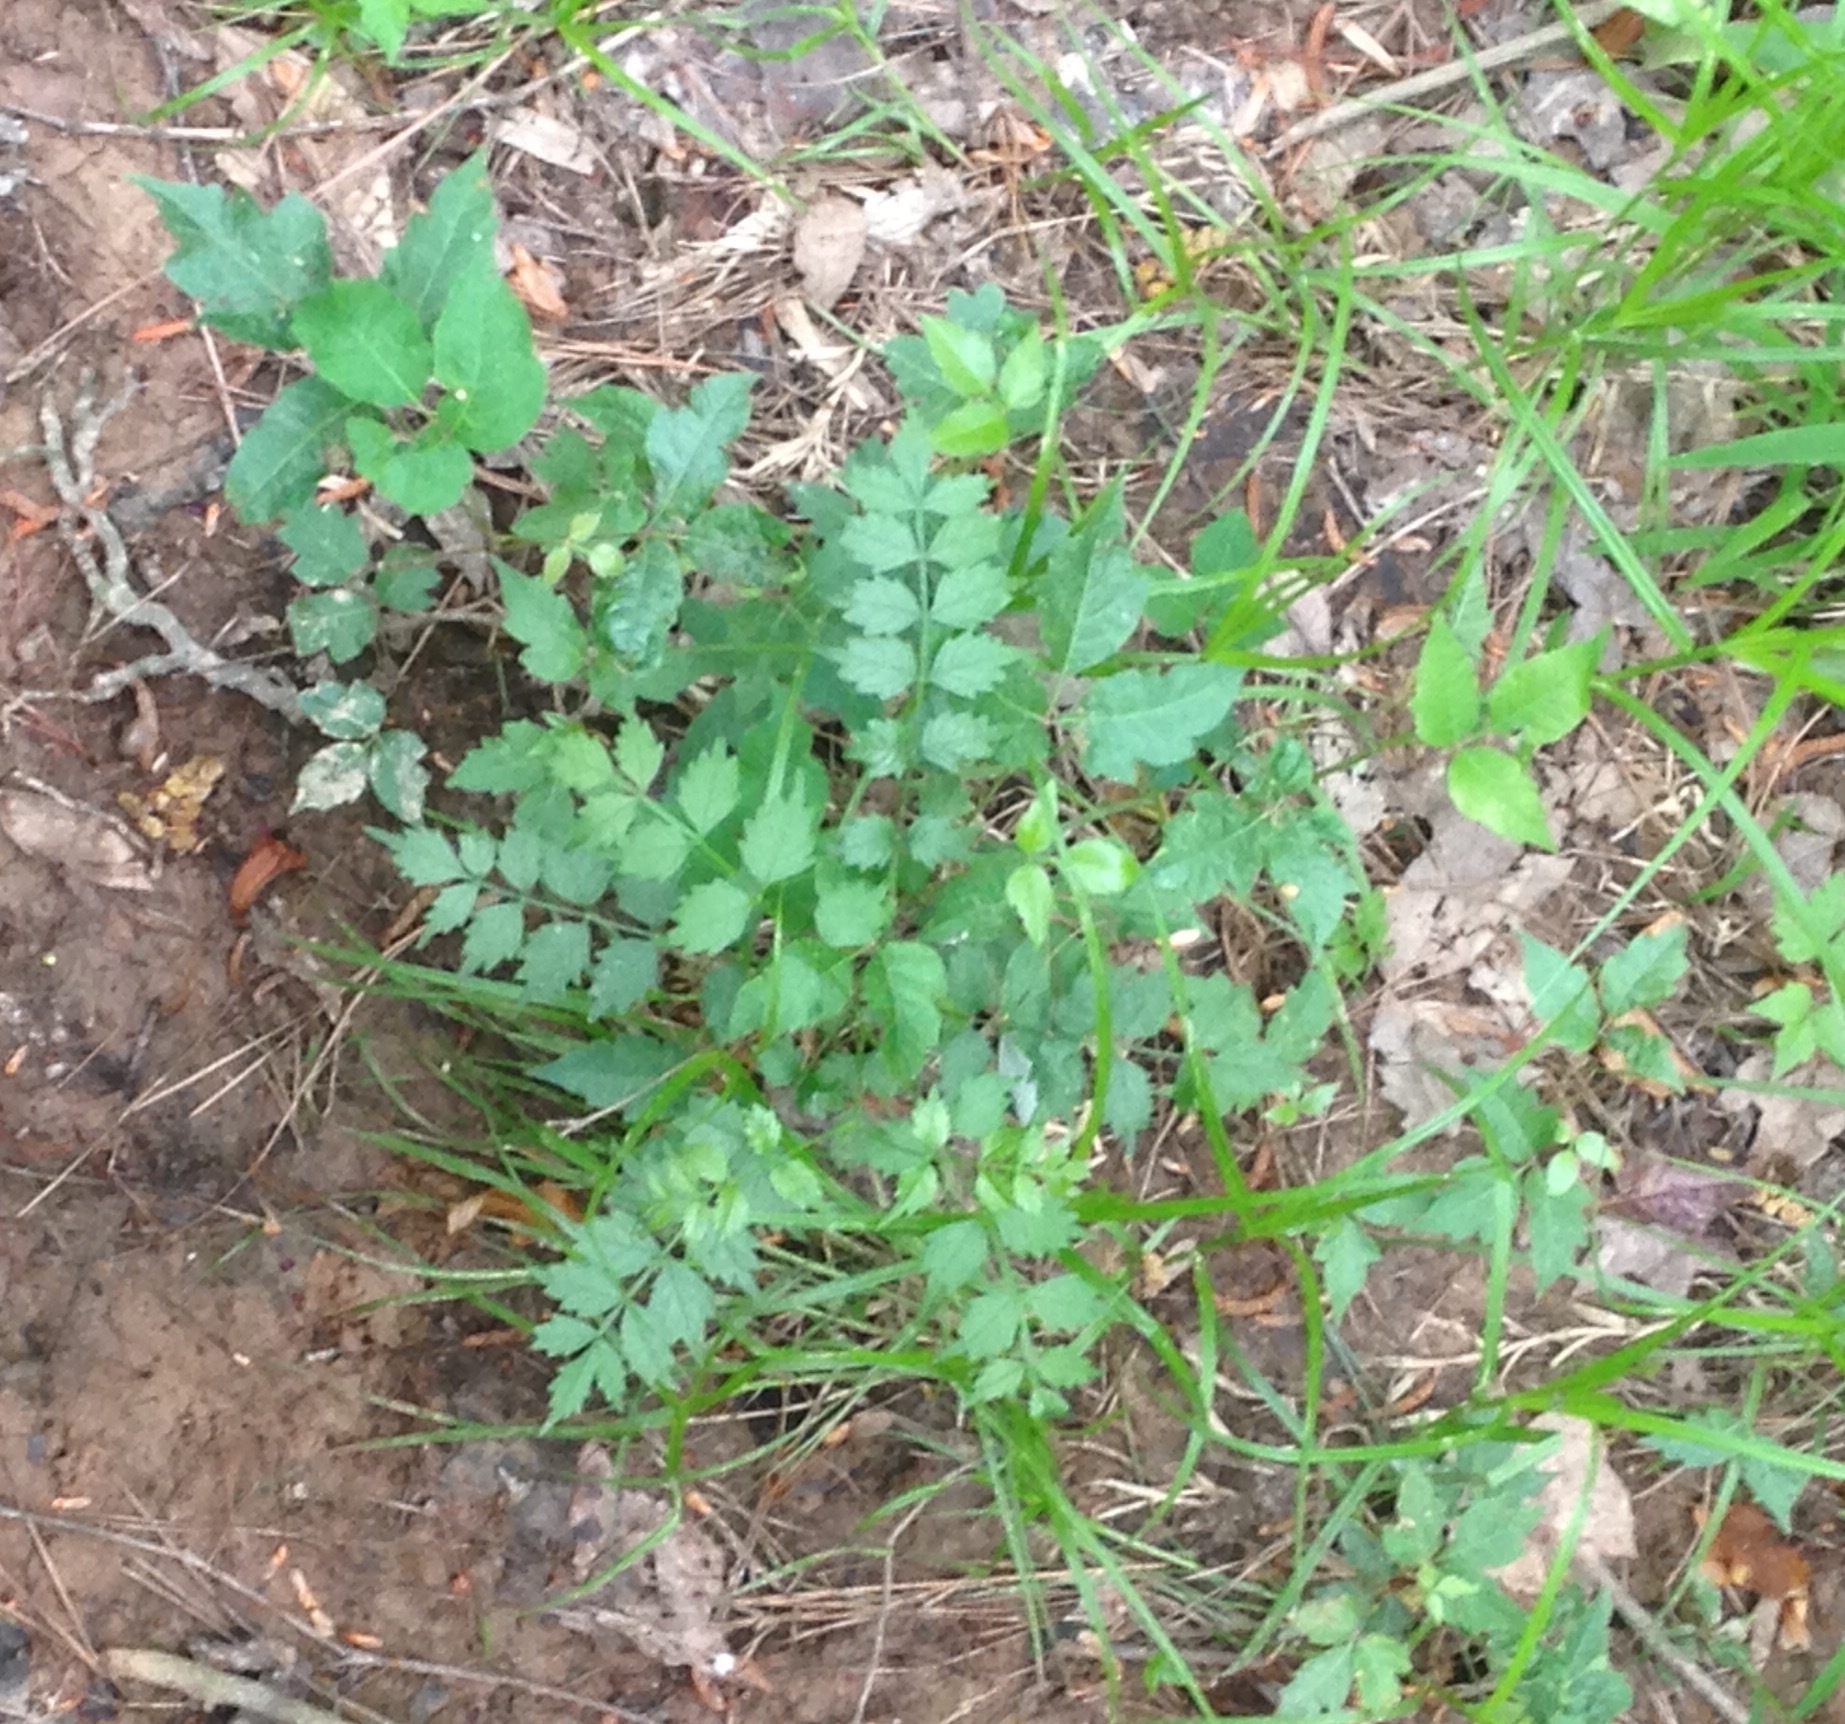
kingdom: Plantae
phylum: Tracheophyta
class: Magnoliopsida
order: Lamiales
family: Bignoniaceae
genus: Campsis
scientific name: Campsis radicans
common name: Trumpet-creeper
